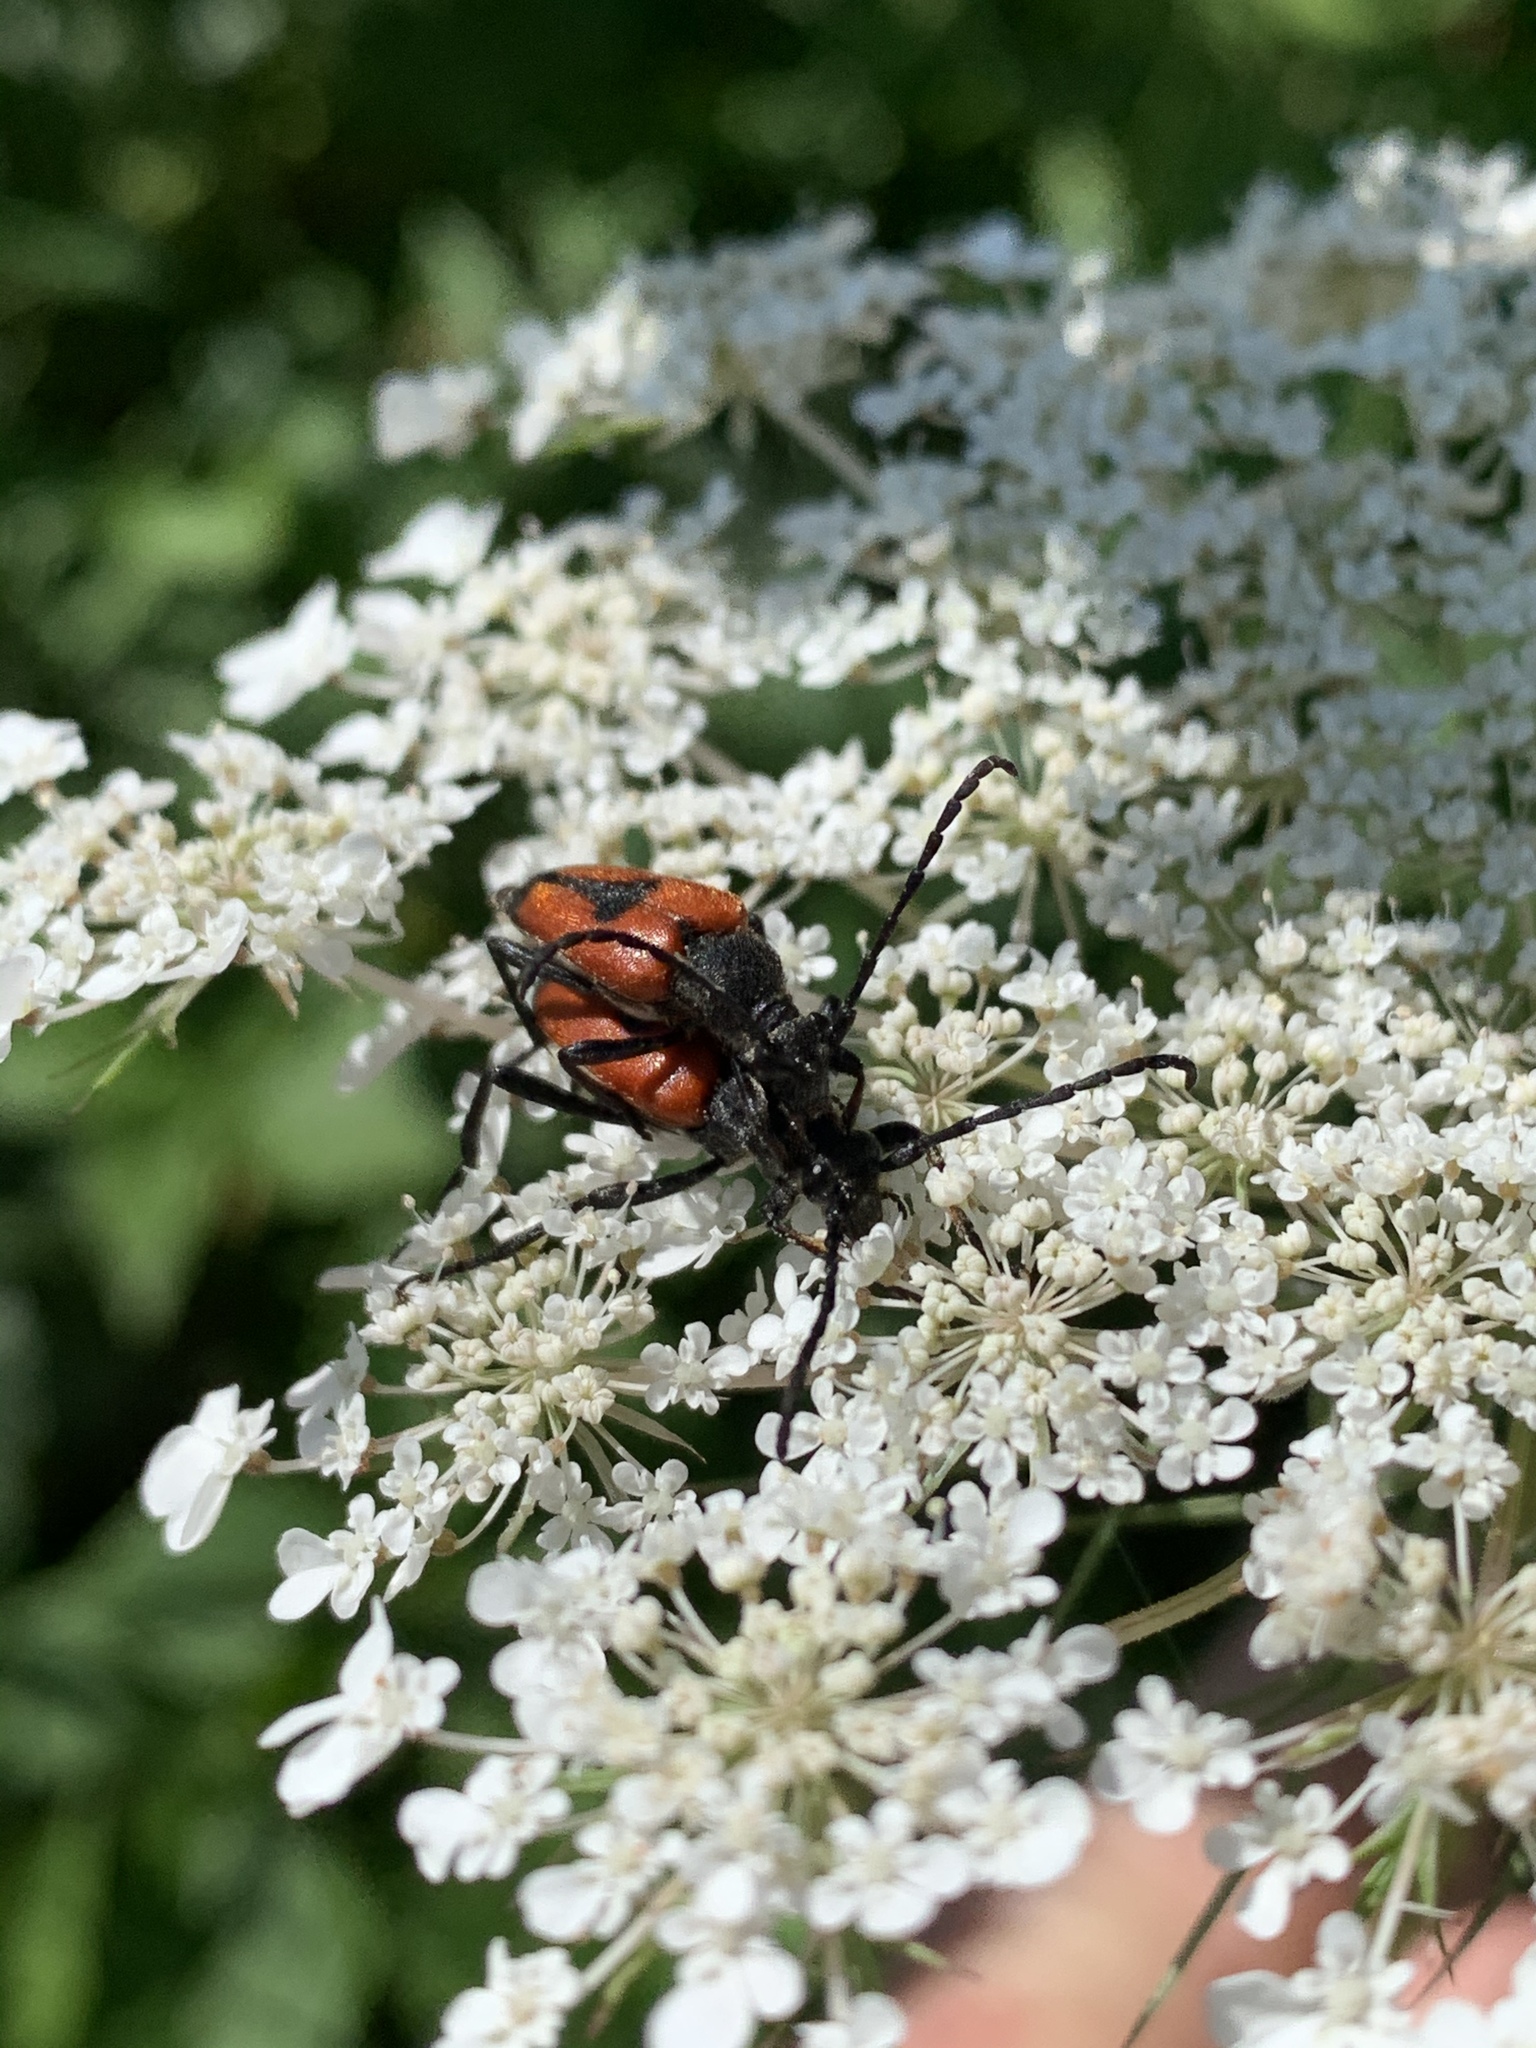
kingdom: Animalia
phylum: Arthropoda
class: Insecta
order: Coleoptera
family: Cerambycidae
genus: Stictoleptura
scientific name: Stictoleptura cordigera
